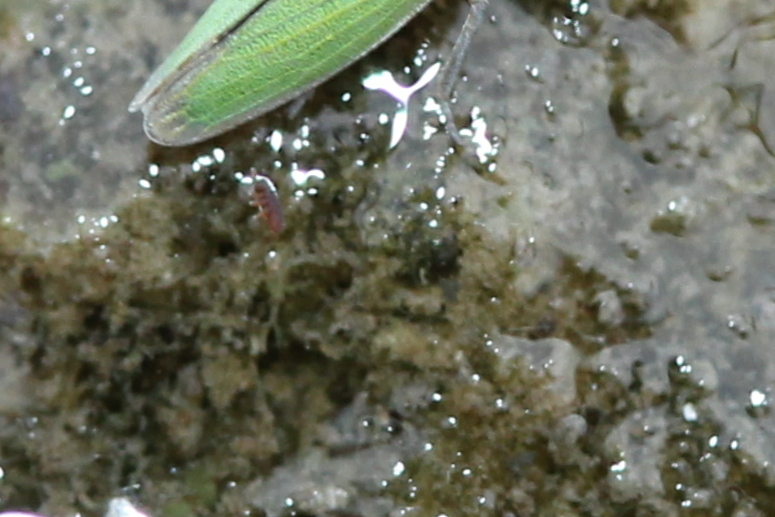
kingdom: Animalia
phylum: Arthropoda
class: Collembola
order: Poduromorpha
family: Poduridae
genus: Podura
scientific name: Podura aquatica
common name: Water springtail
